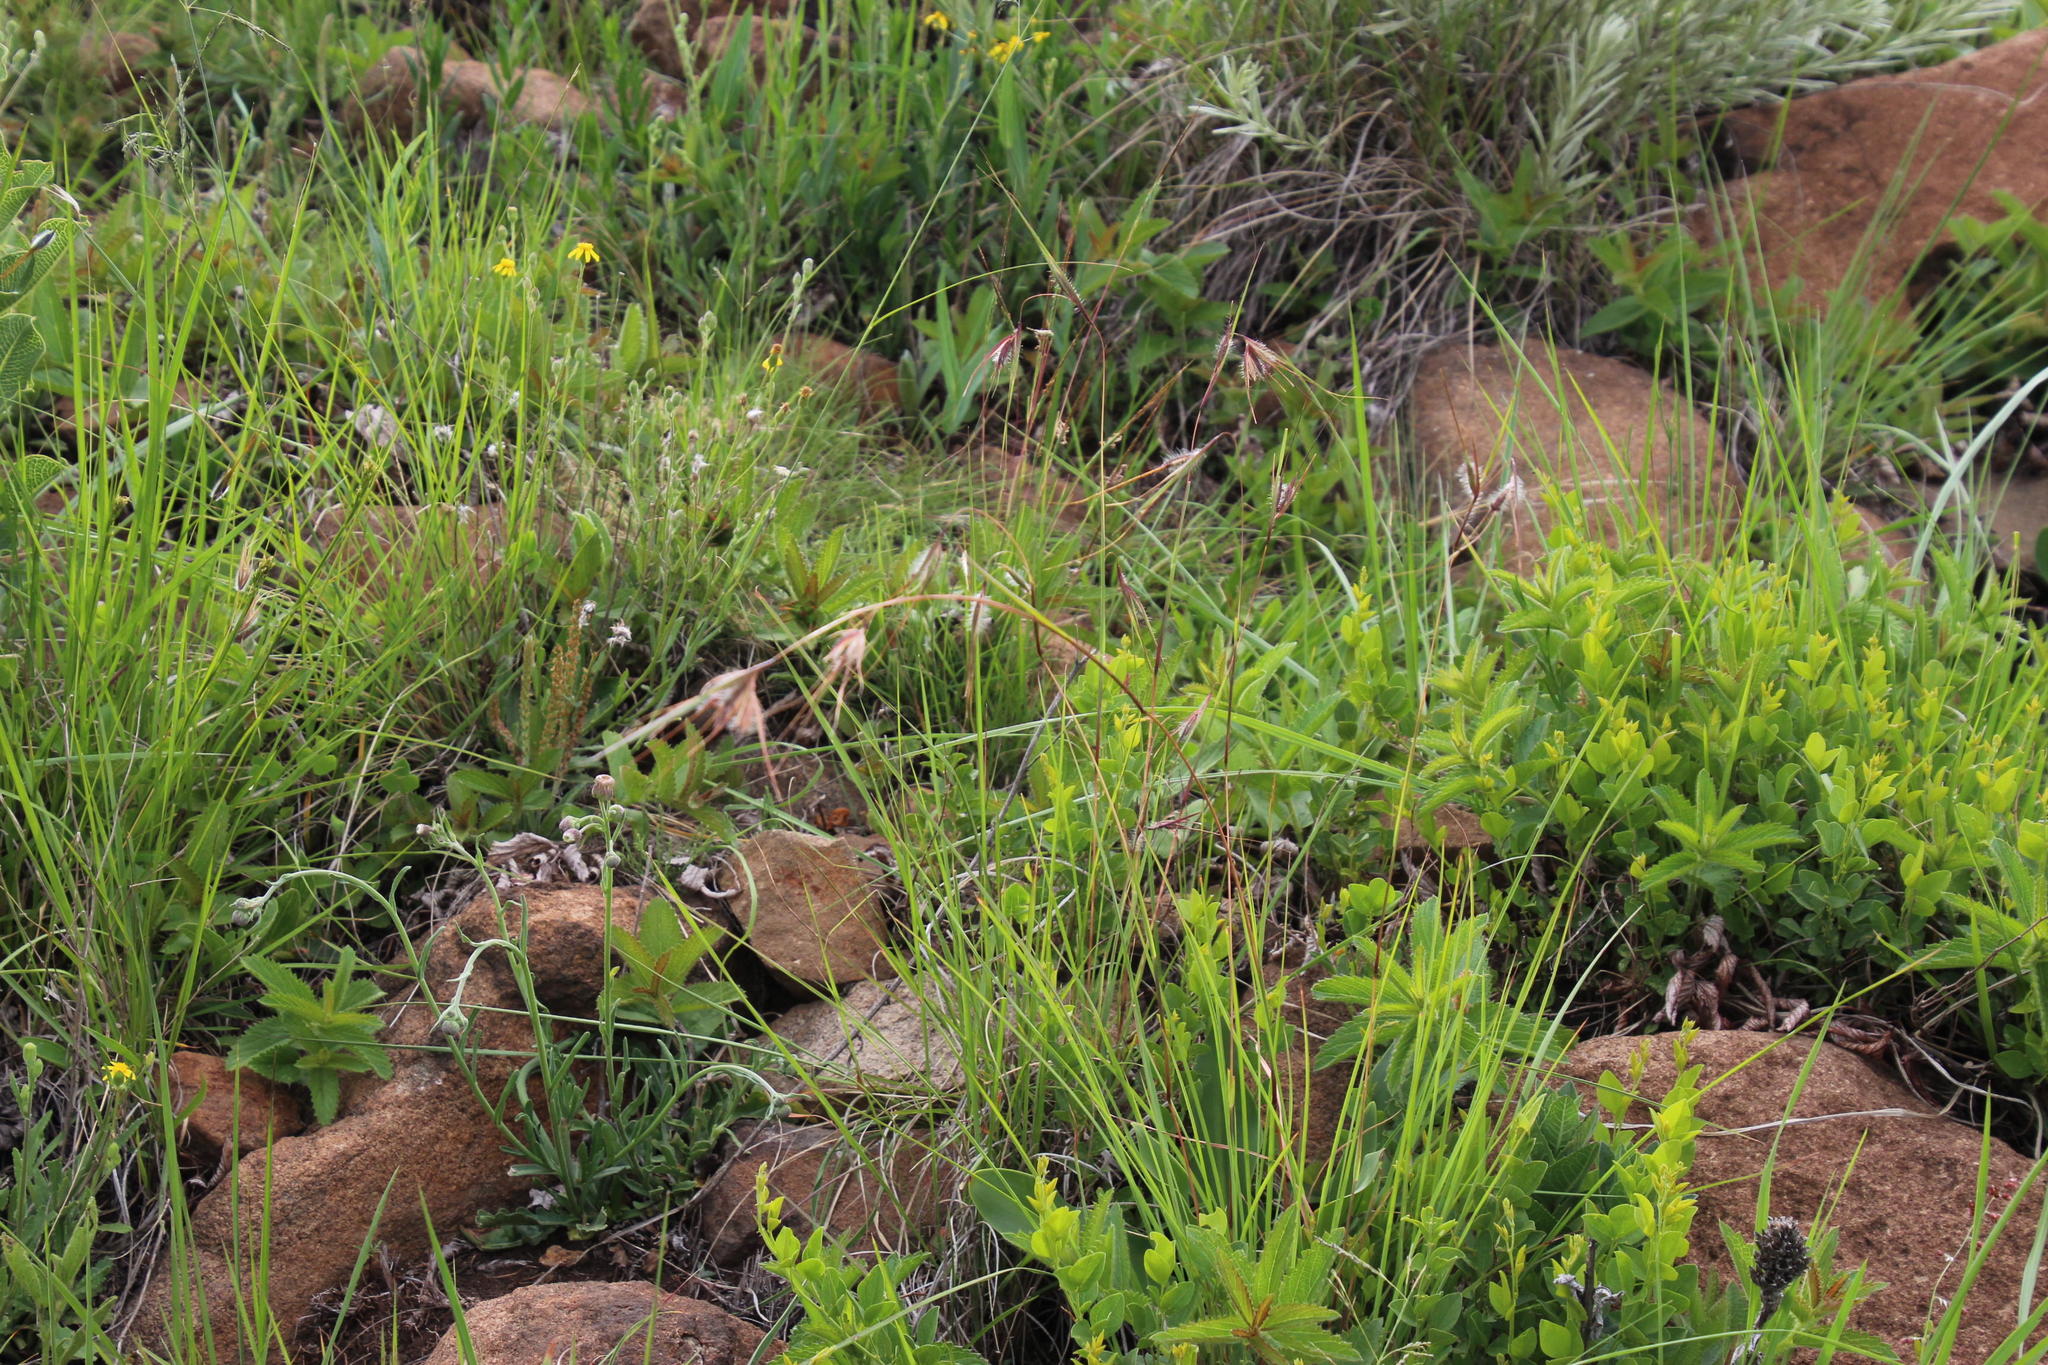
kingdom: Plantae
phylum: Tracheophyta
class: Liliopsida
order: Poales
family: Poaceae
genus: Themeda
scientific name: Themeda triandra
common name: Kangaroo grass
